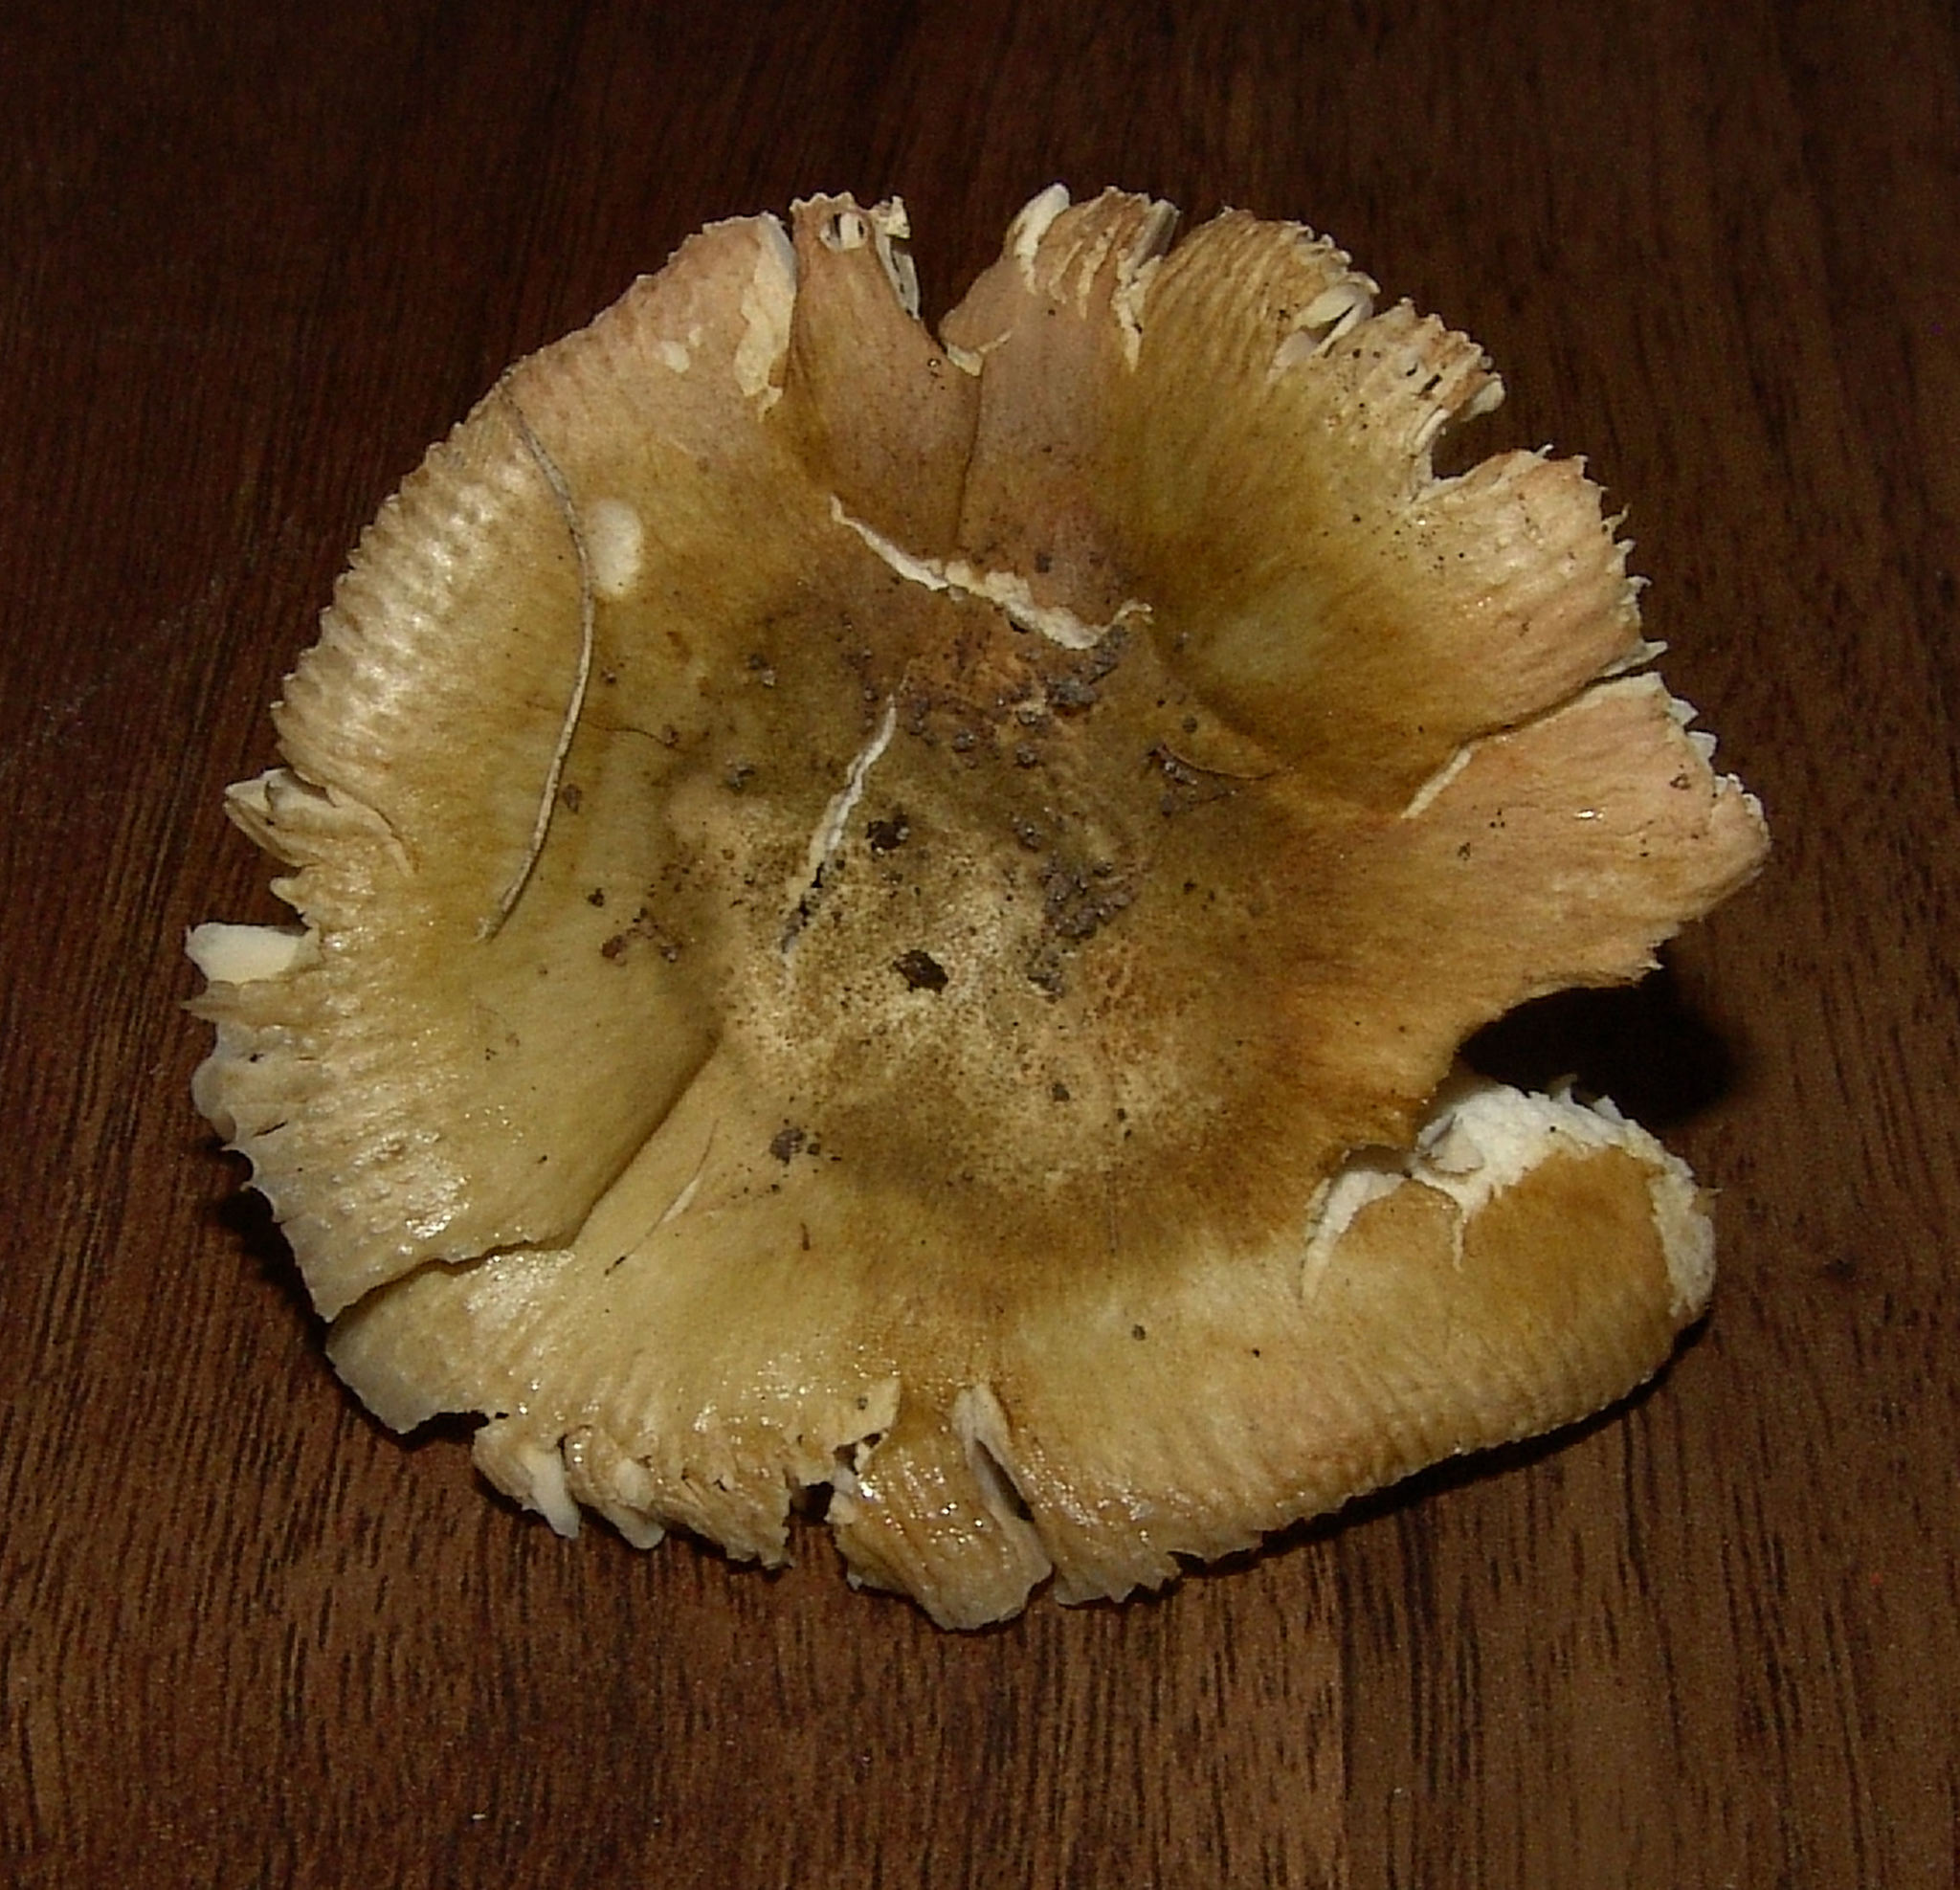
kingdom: Fungi
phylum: Basidiomycota
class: Agaricomycetes
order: Russulales
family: Russulaceae
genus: Russula
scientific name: Russula
